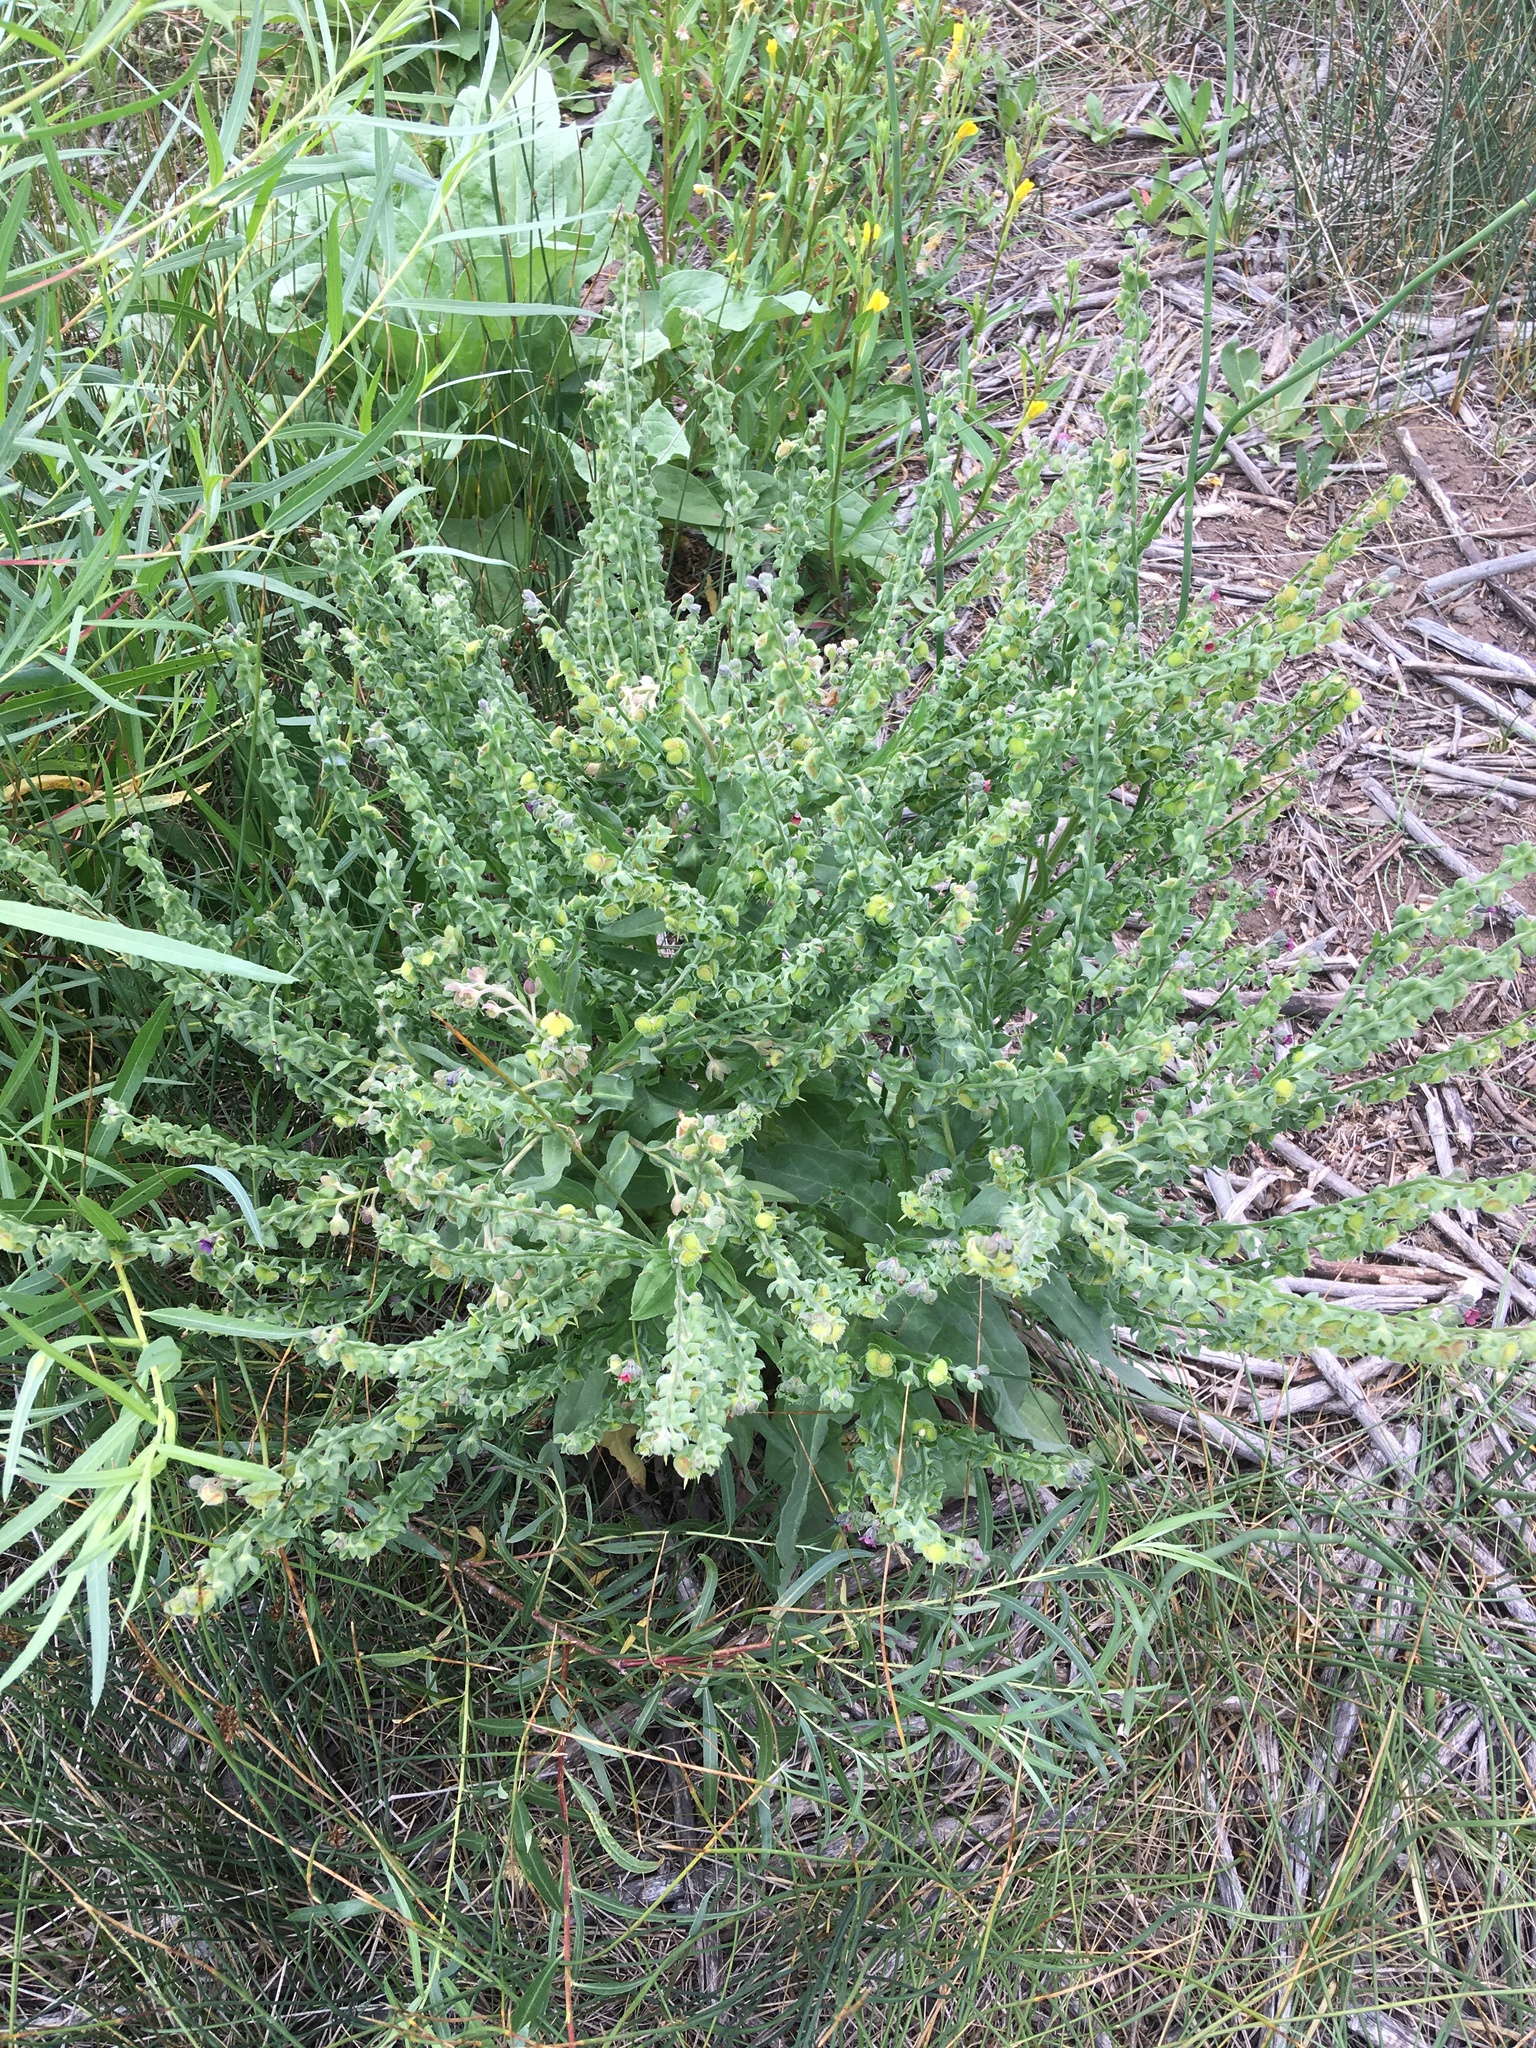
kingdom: Plantae
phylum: Tracheophyta
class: Magnoliopsida
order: Boraginales
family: Boraginaceae
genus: Cynoglossum
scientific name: Cynoglossum officinale
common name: Hound's-tongue
